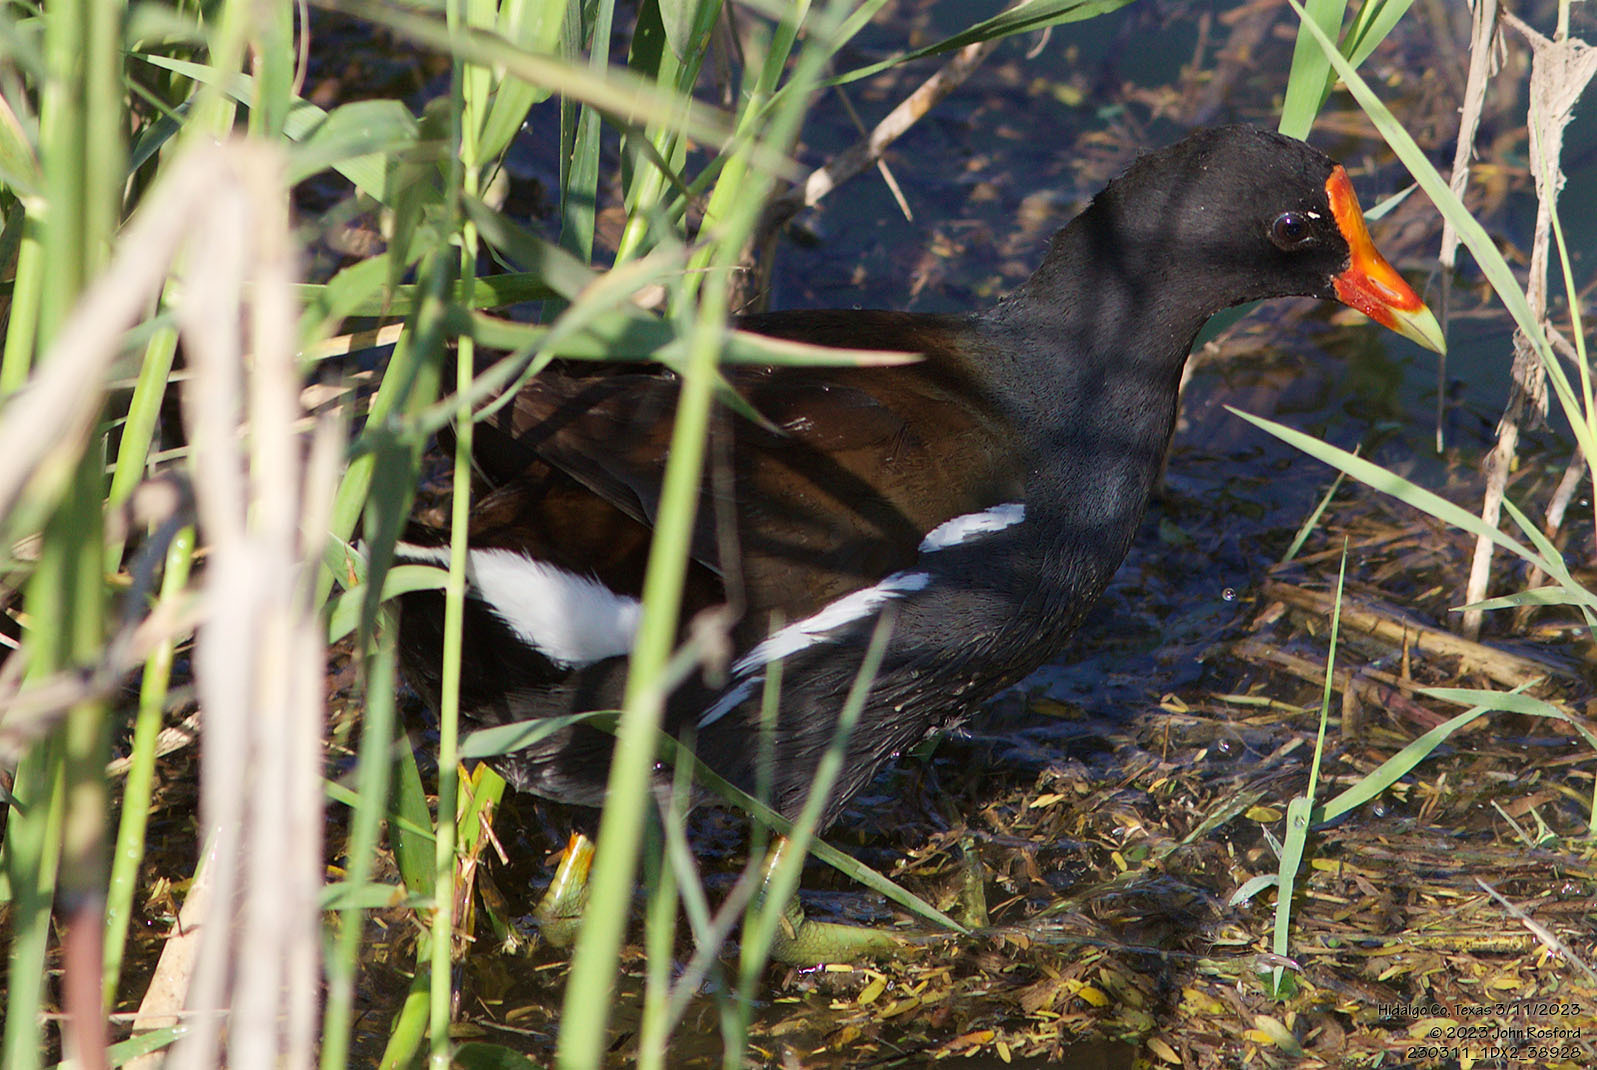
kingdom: Animalia
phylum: Chordata
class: Aves
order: Gruiformes
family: Rallidae
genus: Gallinula
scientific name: Gallinula chloropus
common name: Common moorhen
